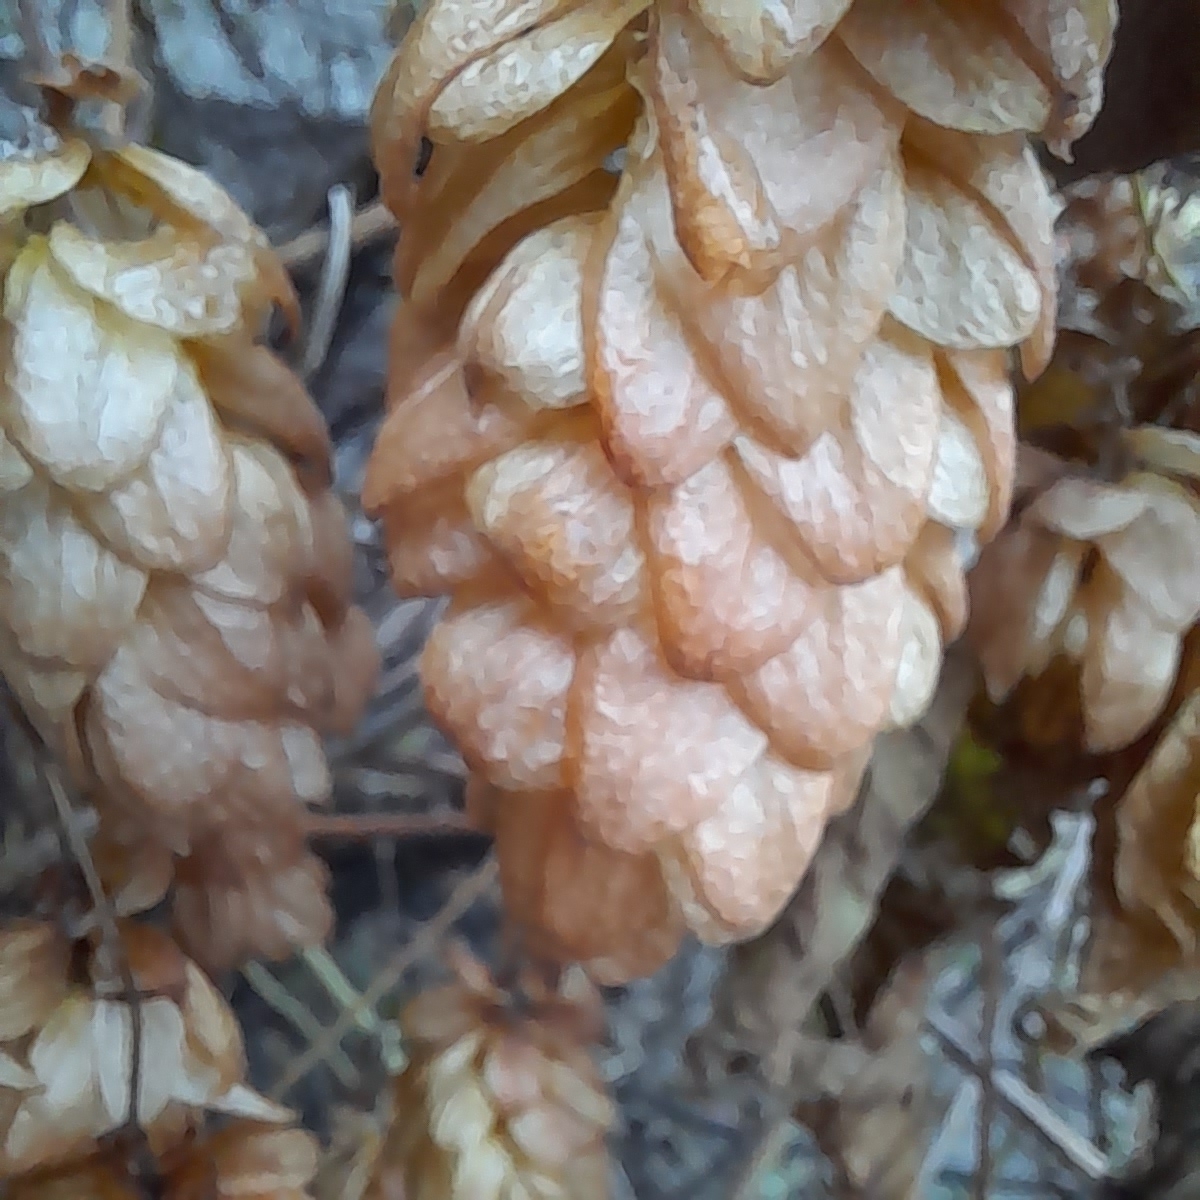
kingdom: Plantae
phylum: Tracheophyta
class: Magnoliopsida
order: Rosales
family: Cannabaceae
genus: Humulus
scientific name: Humulus lupulus
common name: Hop
